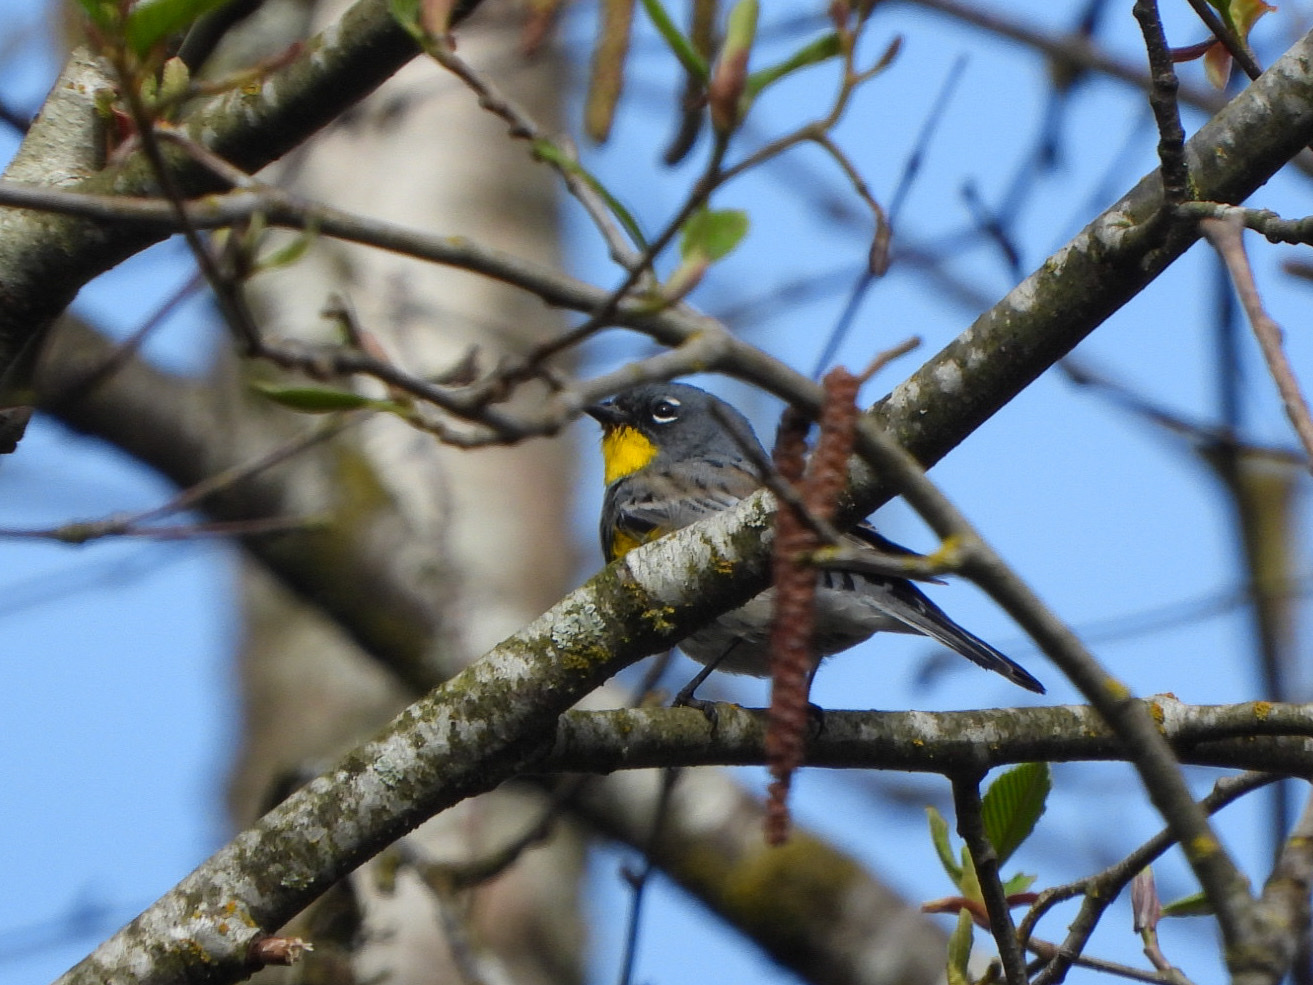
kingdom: Animalia
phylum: Chordata
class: Aves
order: Passeriformes
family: Parulidae
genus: Setophaga
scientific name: Setophaga auduboni
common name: Audubon's warbler
